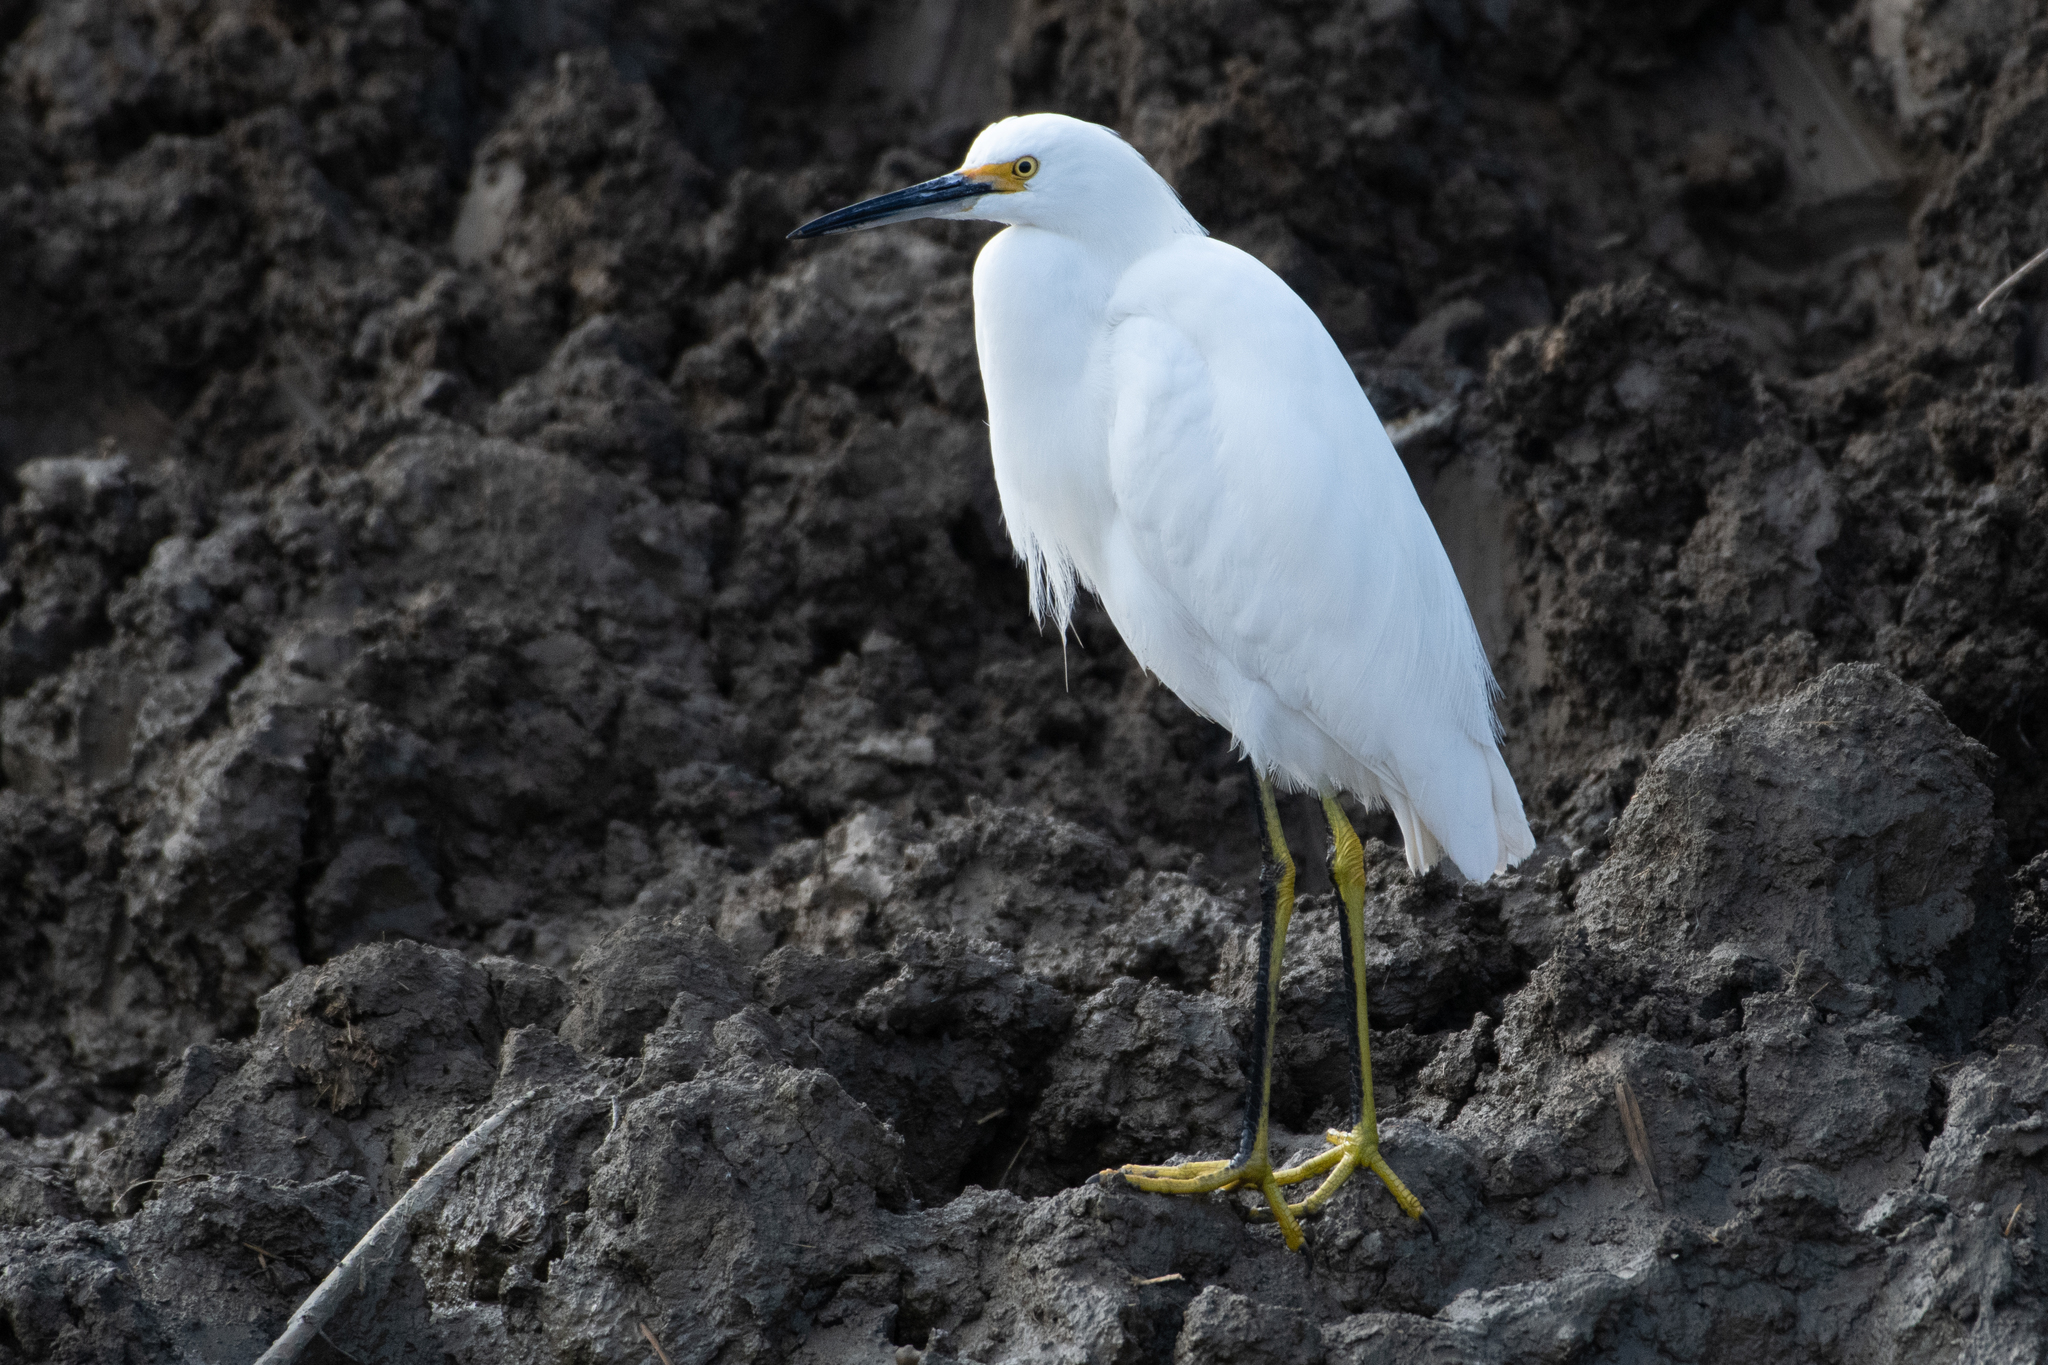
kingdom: Animalia
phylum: Chordata
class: Aves
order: Pelecaniformes
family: Ardeidae
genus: Egretta
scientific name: Egretta thula
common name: Snowy egret
